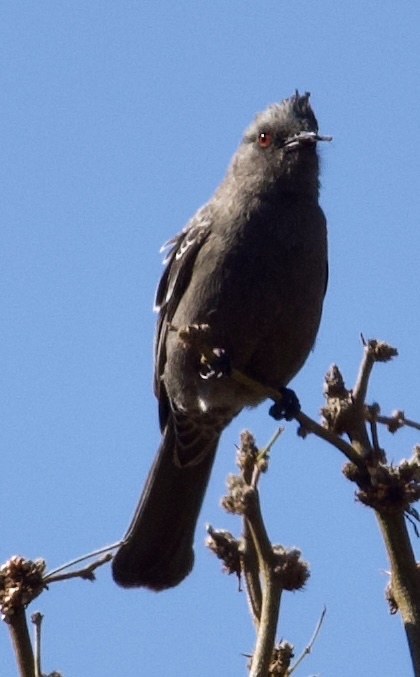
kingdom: Animalia
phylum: Chordata
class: Aves
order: Passeriformes
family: Ptilogonatidae
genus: Phainopepla
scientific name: Phainopepla nitens
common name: Phainopepla
